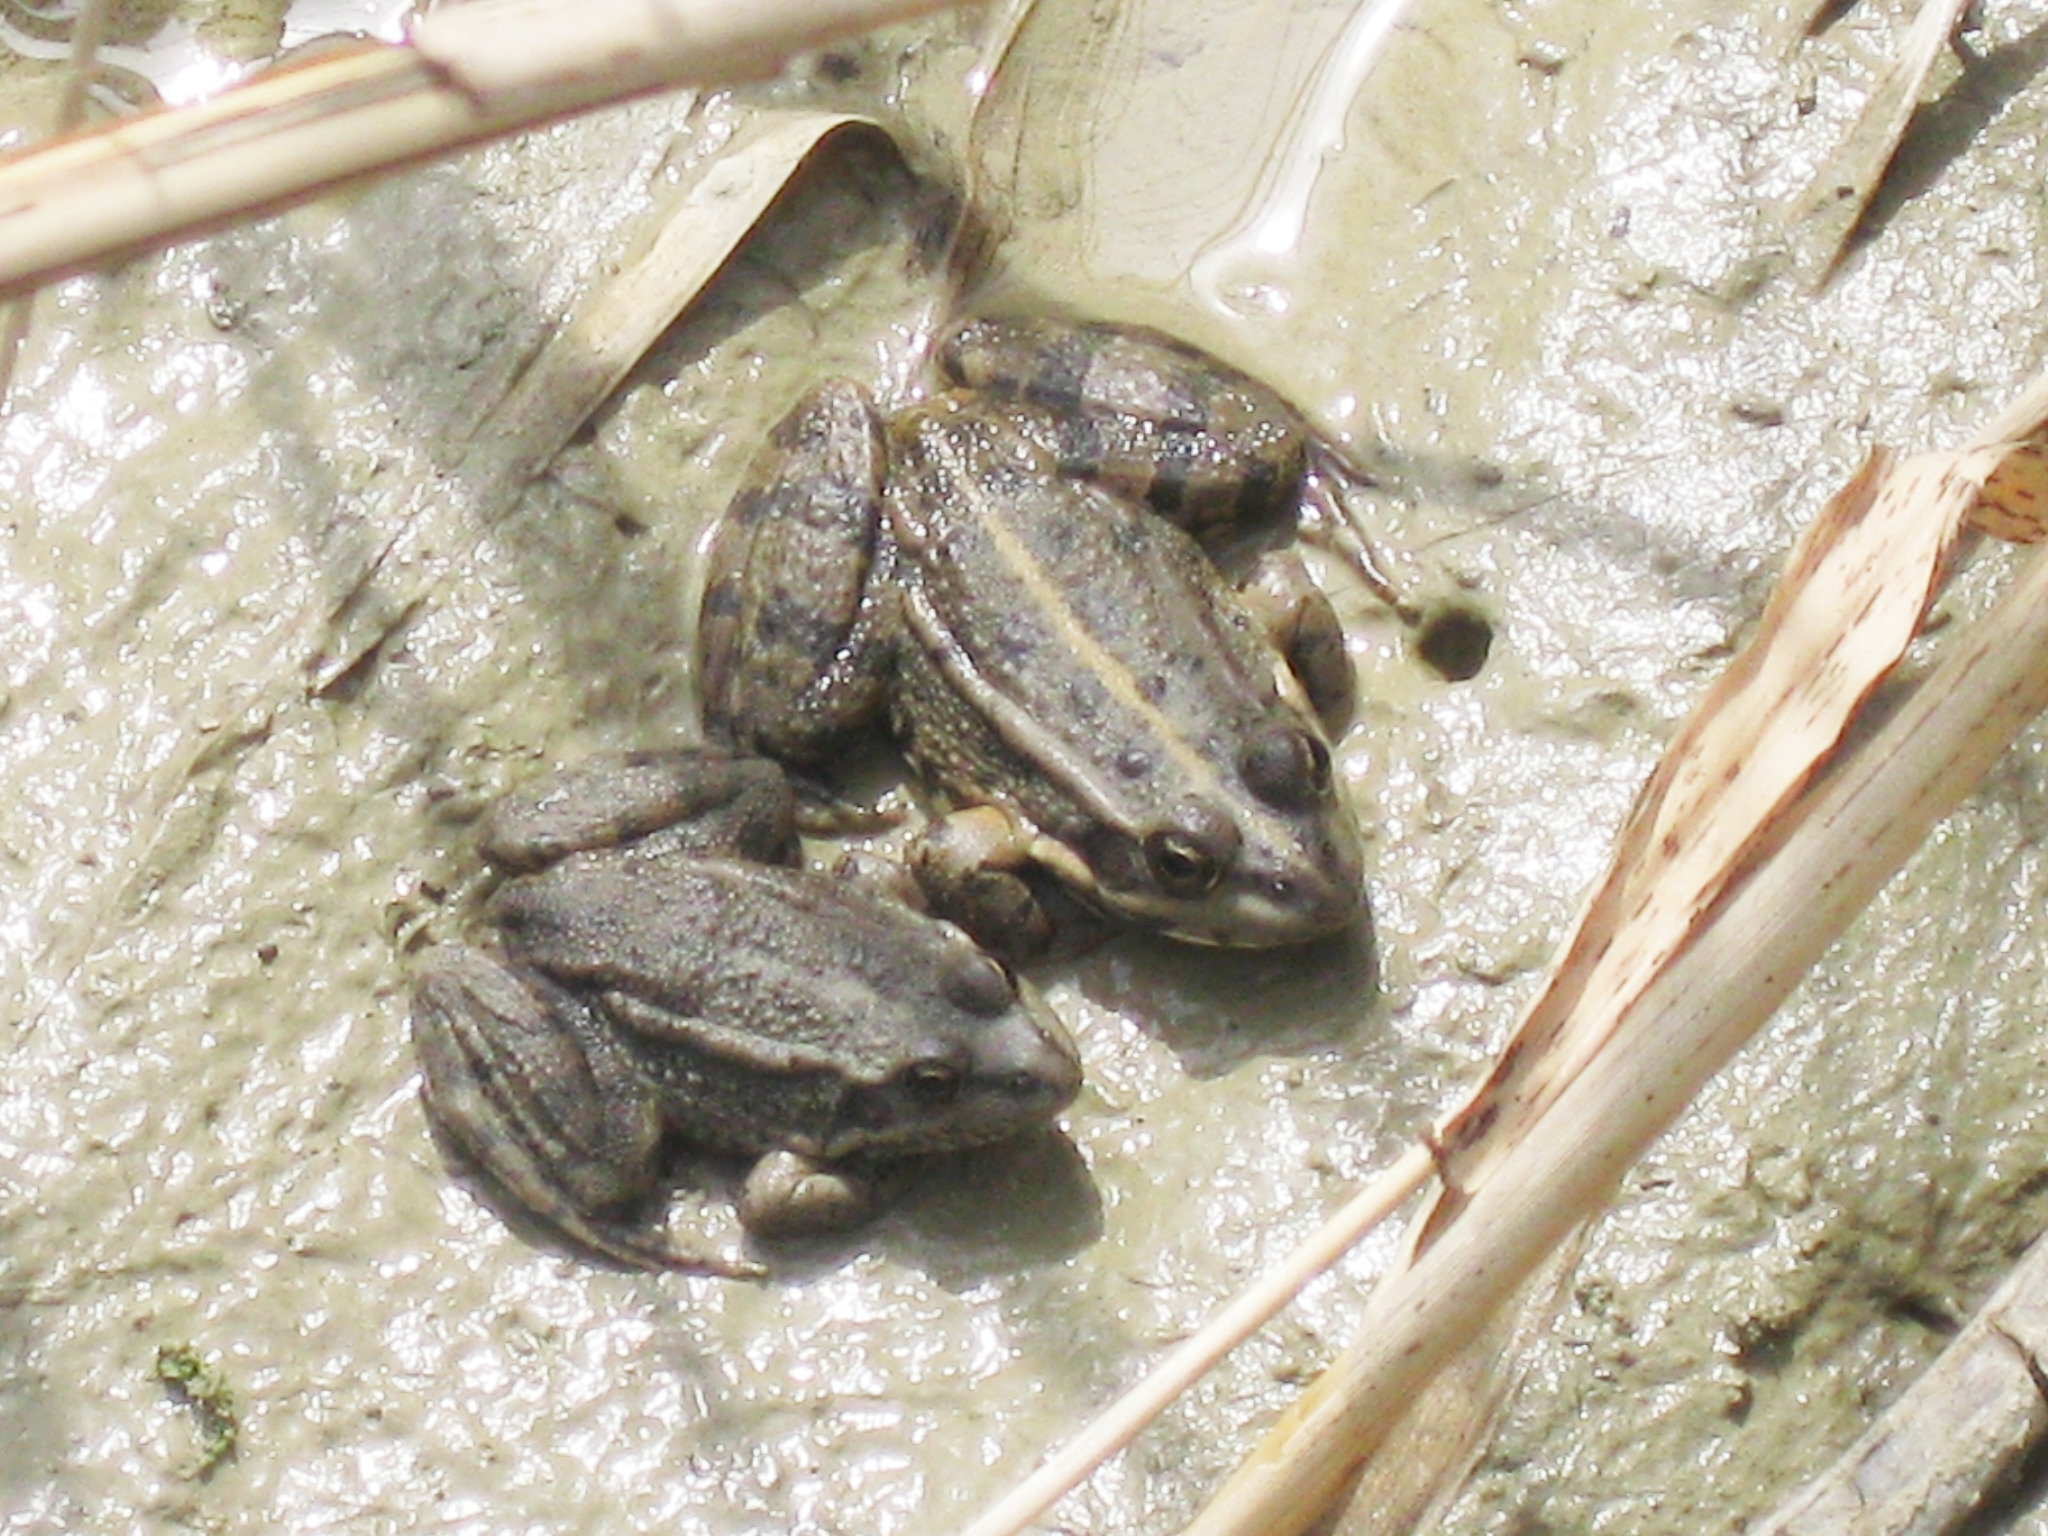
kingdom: Animalia
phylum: Chordata
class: Amphibia
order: Anura
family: Ranidae
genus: Pelophylax
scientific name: Pelophylax ridibundus
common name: Marsh frog
